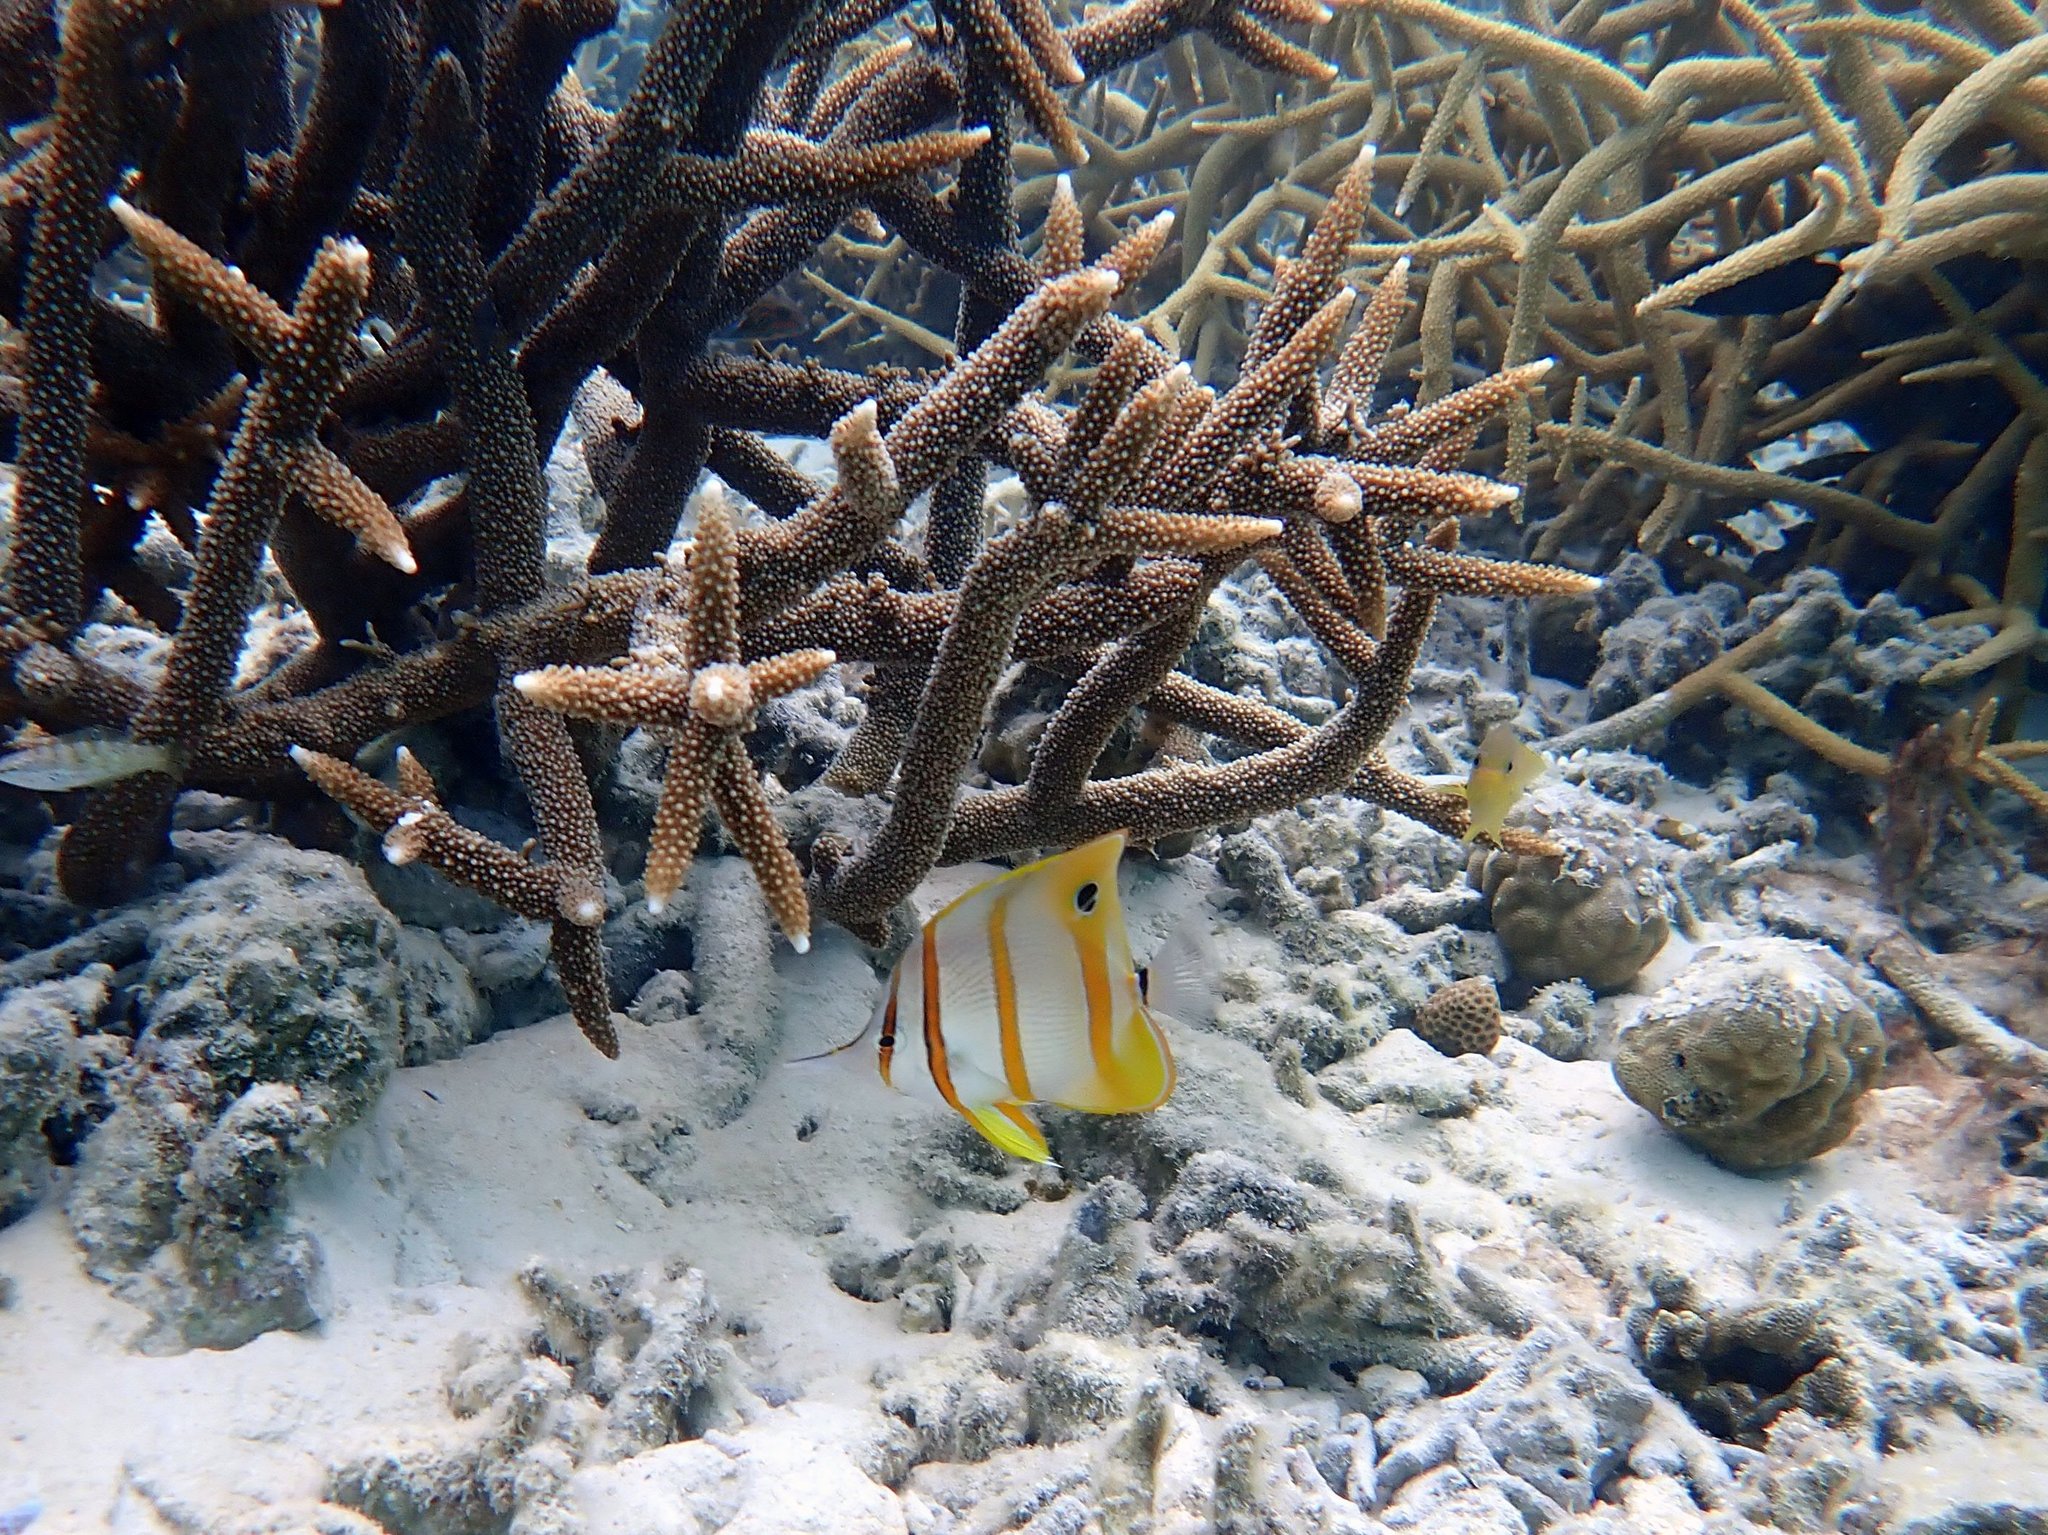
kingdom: Animalia
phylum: Chordata
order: Perciformes
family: Chaetodontidae
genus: Chelmon
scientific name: Chelmon rostratus
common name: Beaked butterflyfish
